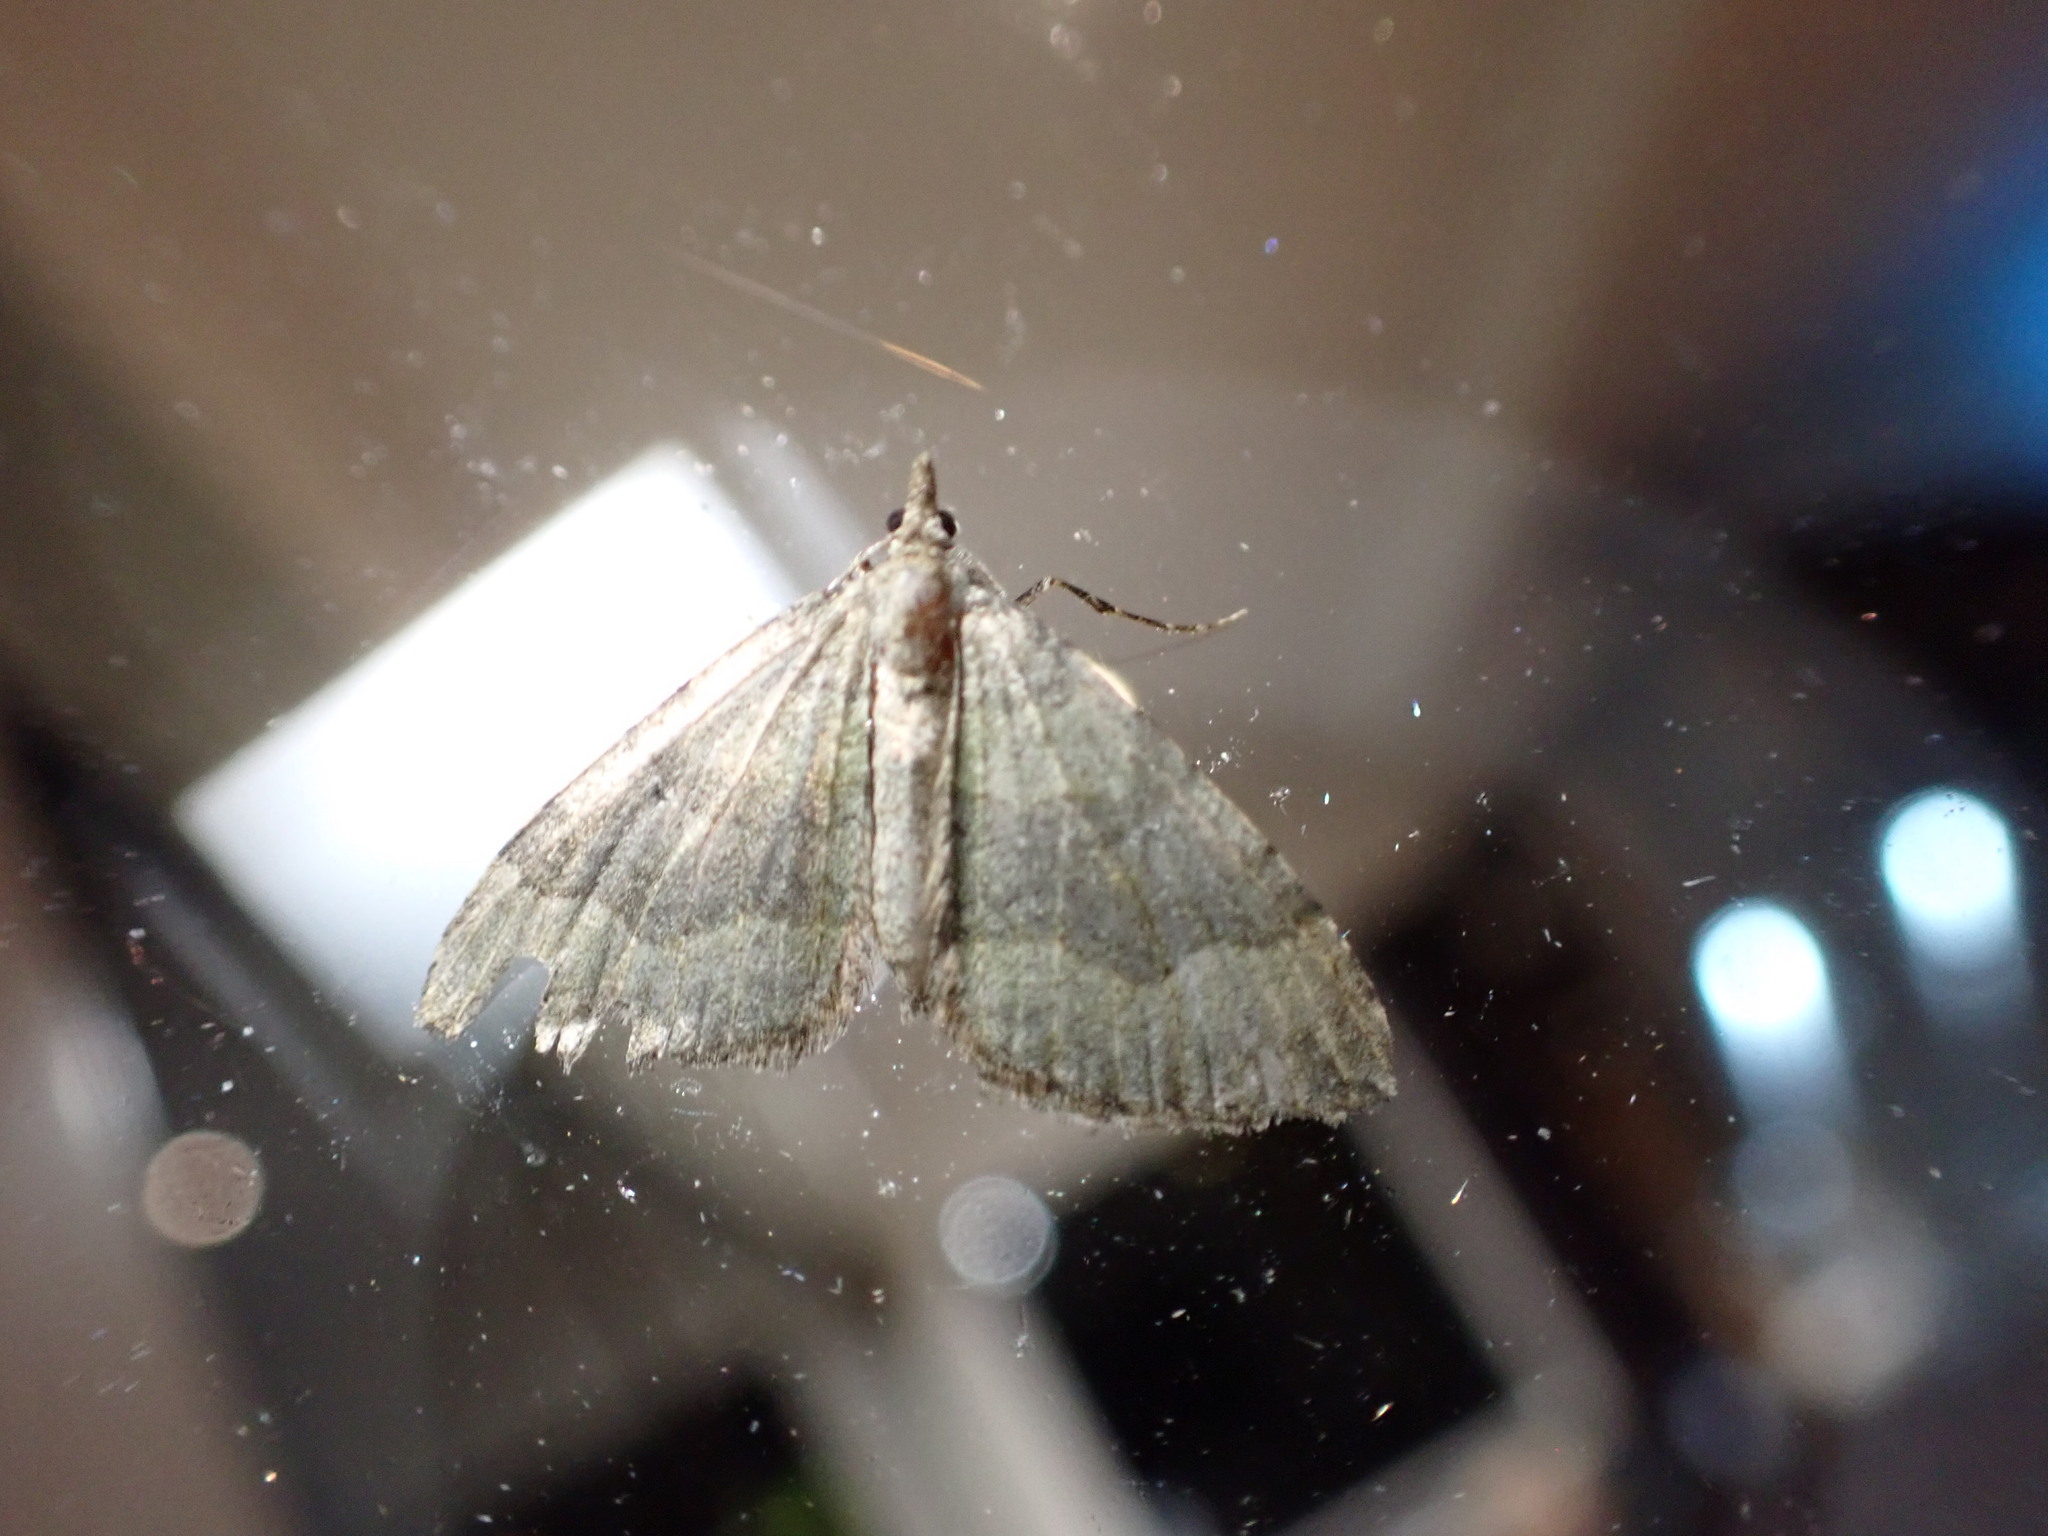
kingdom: Animalia
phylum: Arthropoda
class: Insecta
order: Lepidoptera
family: Geometridae
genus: Epyaxa
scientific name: Epyaxa rosearia
